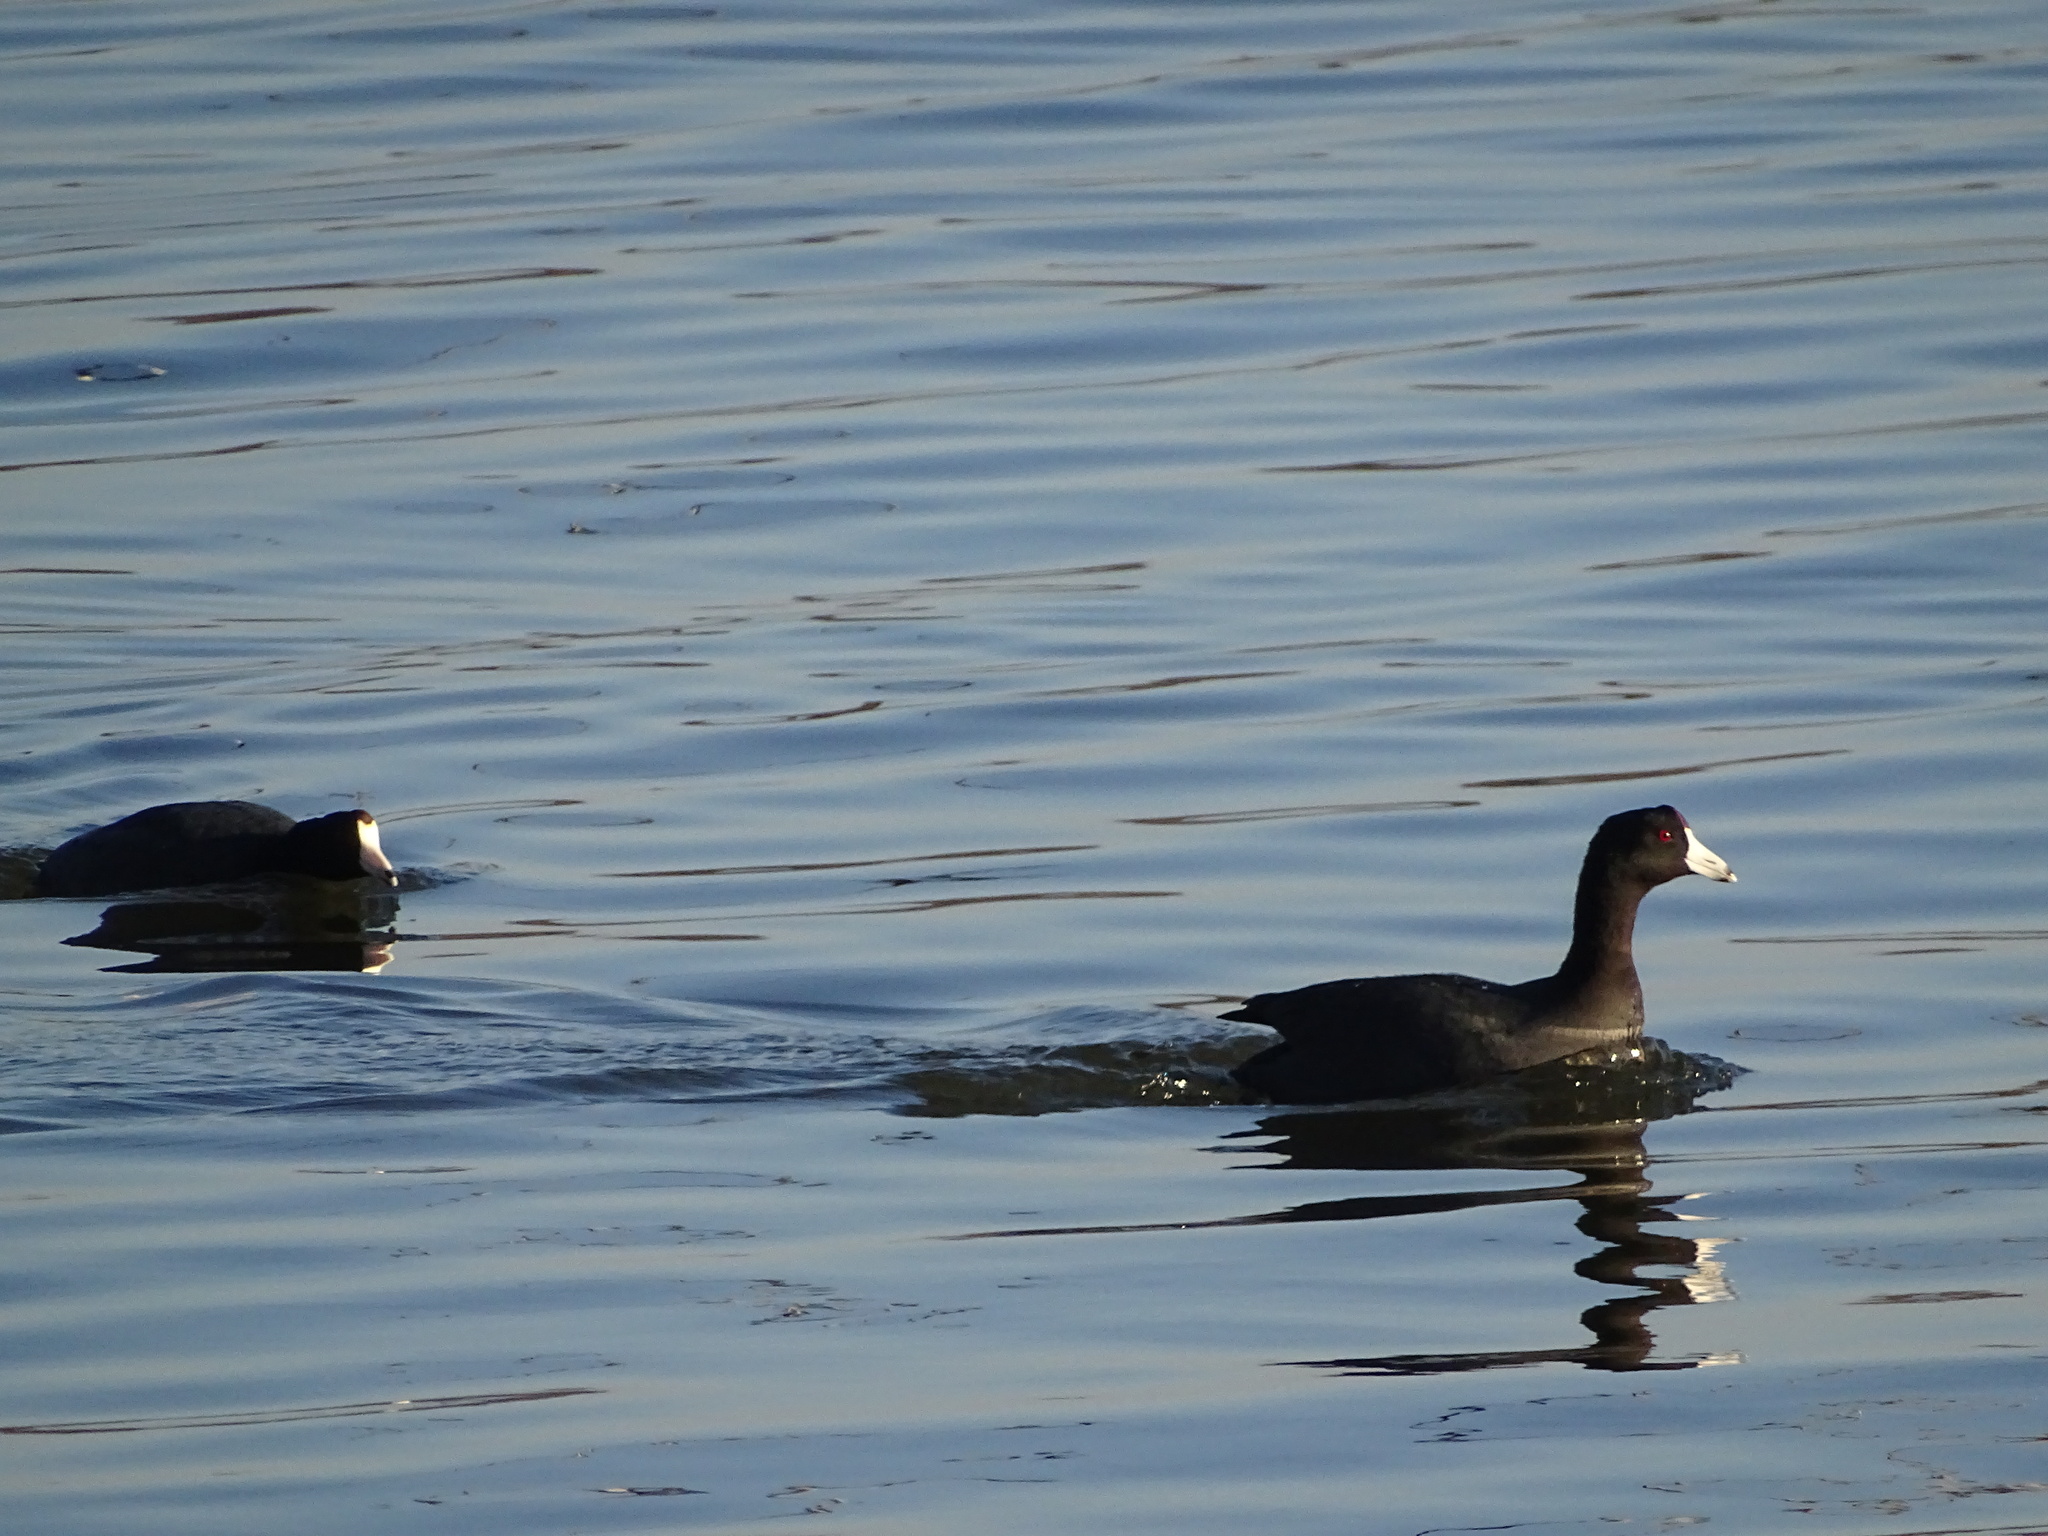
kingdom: Animalia
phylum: Chordata
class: Aves
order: Gruiformes
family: Rallidae
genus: Fulica
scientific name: Fulica americana
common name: American coot
